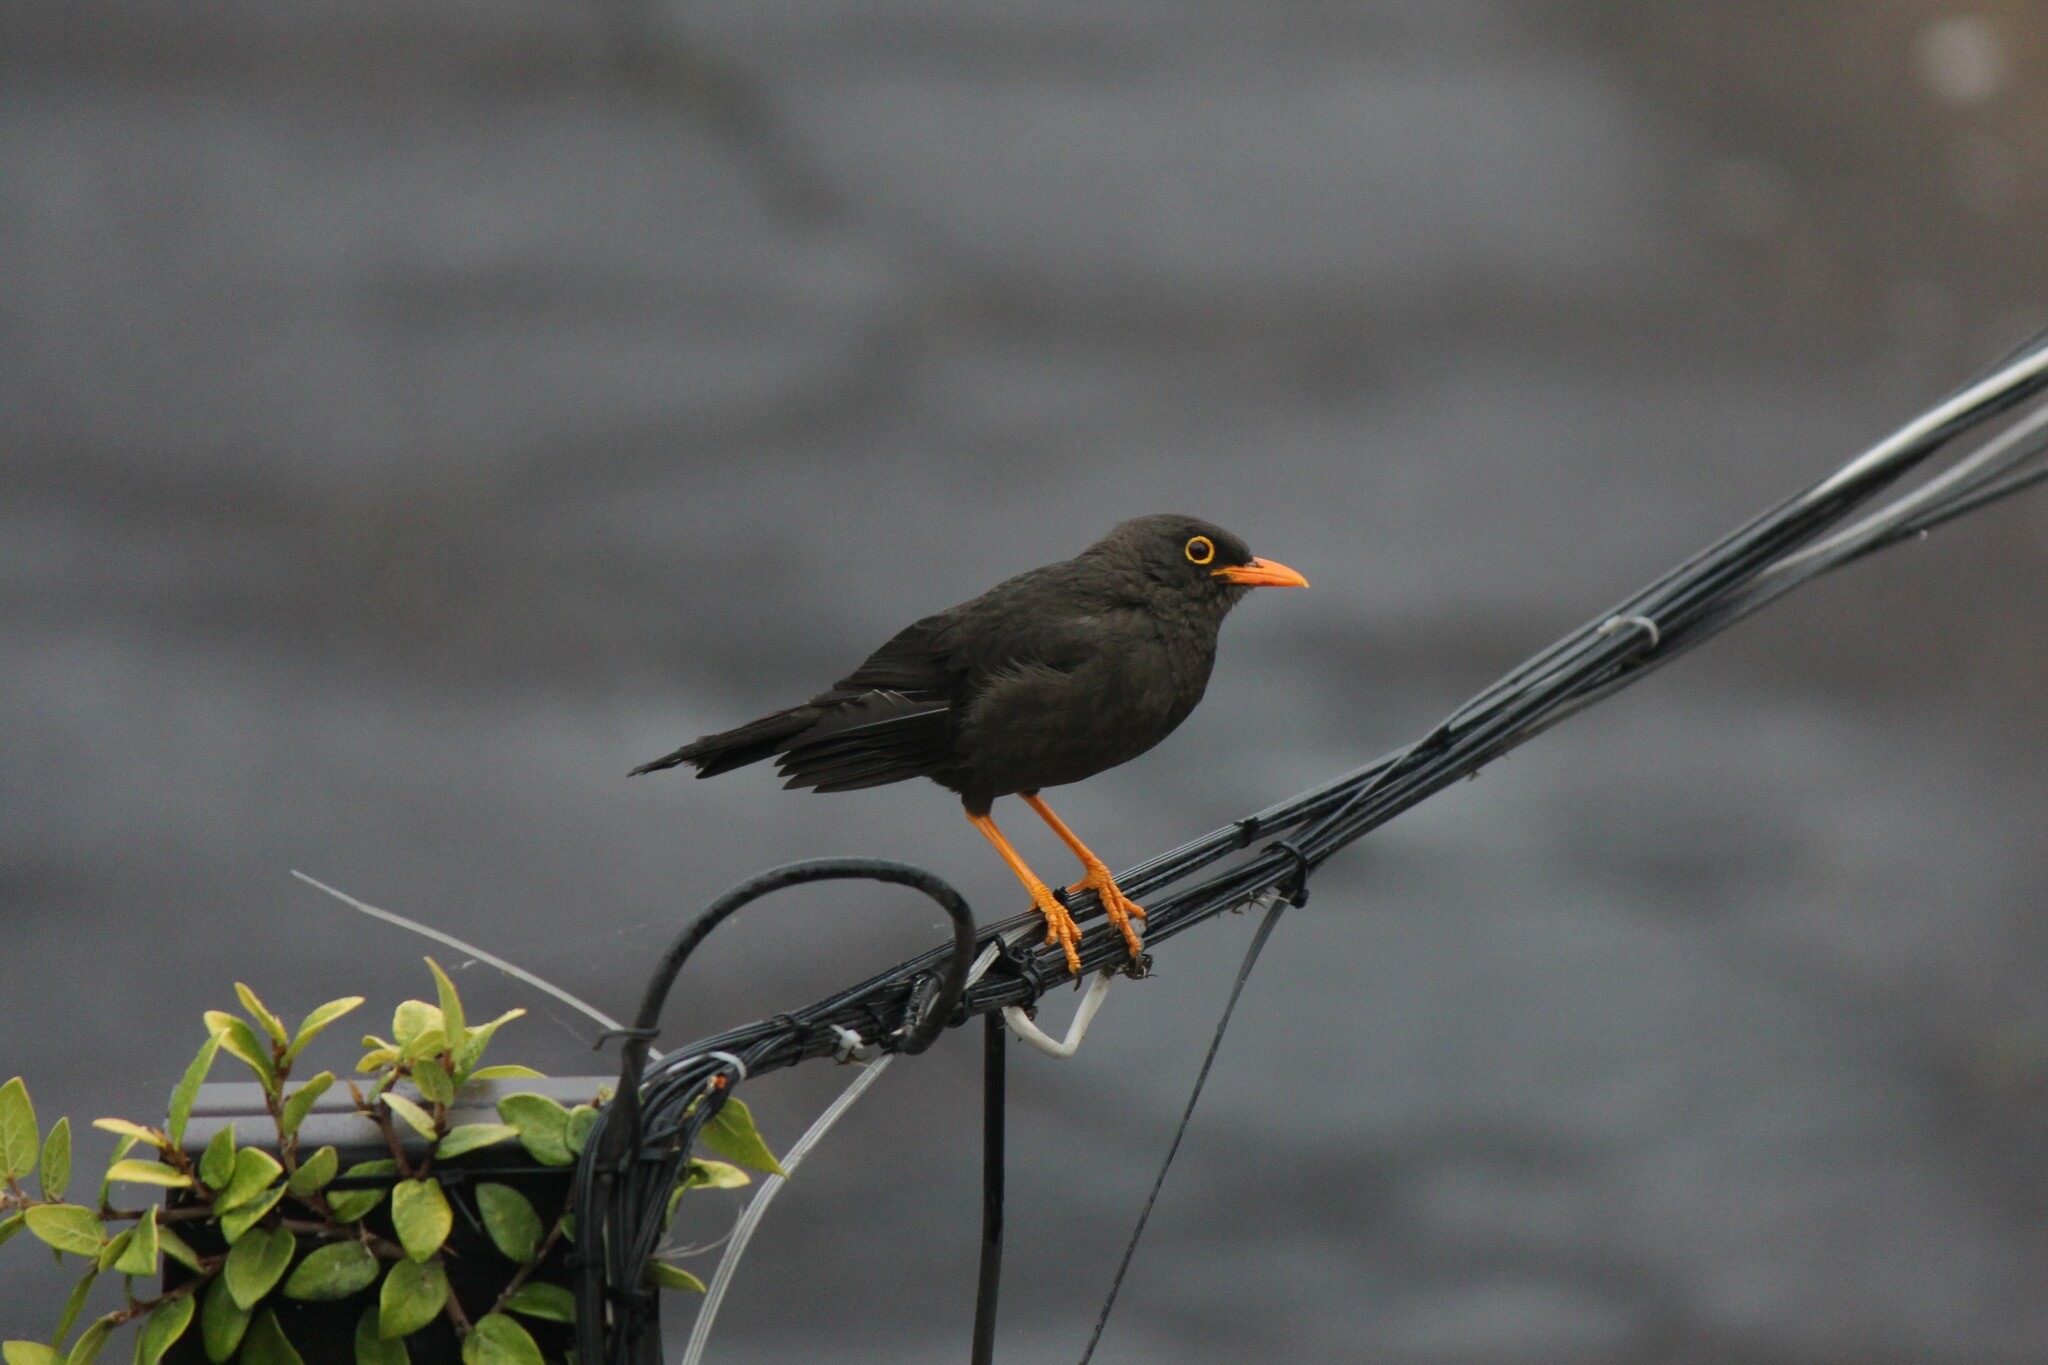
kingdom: Animalia
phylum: Chordata
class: Aves
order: Passeriformes
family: Turdidae
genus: Turdus
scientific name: Turdus fuscater
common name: Great thrush
